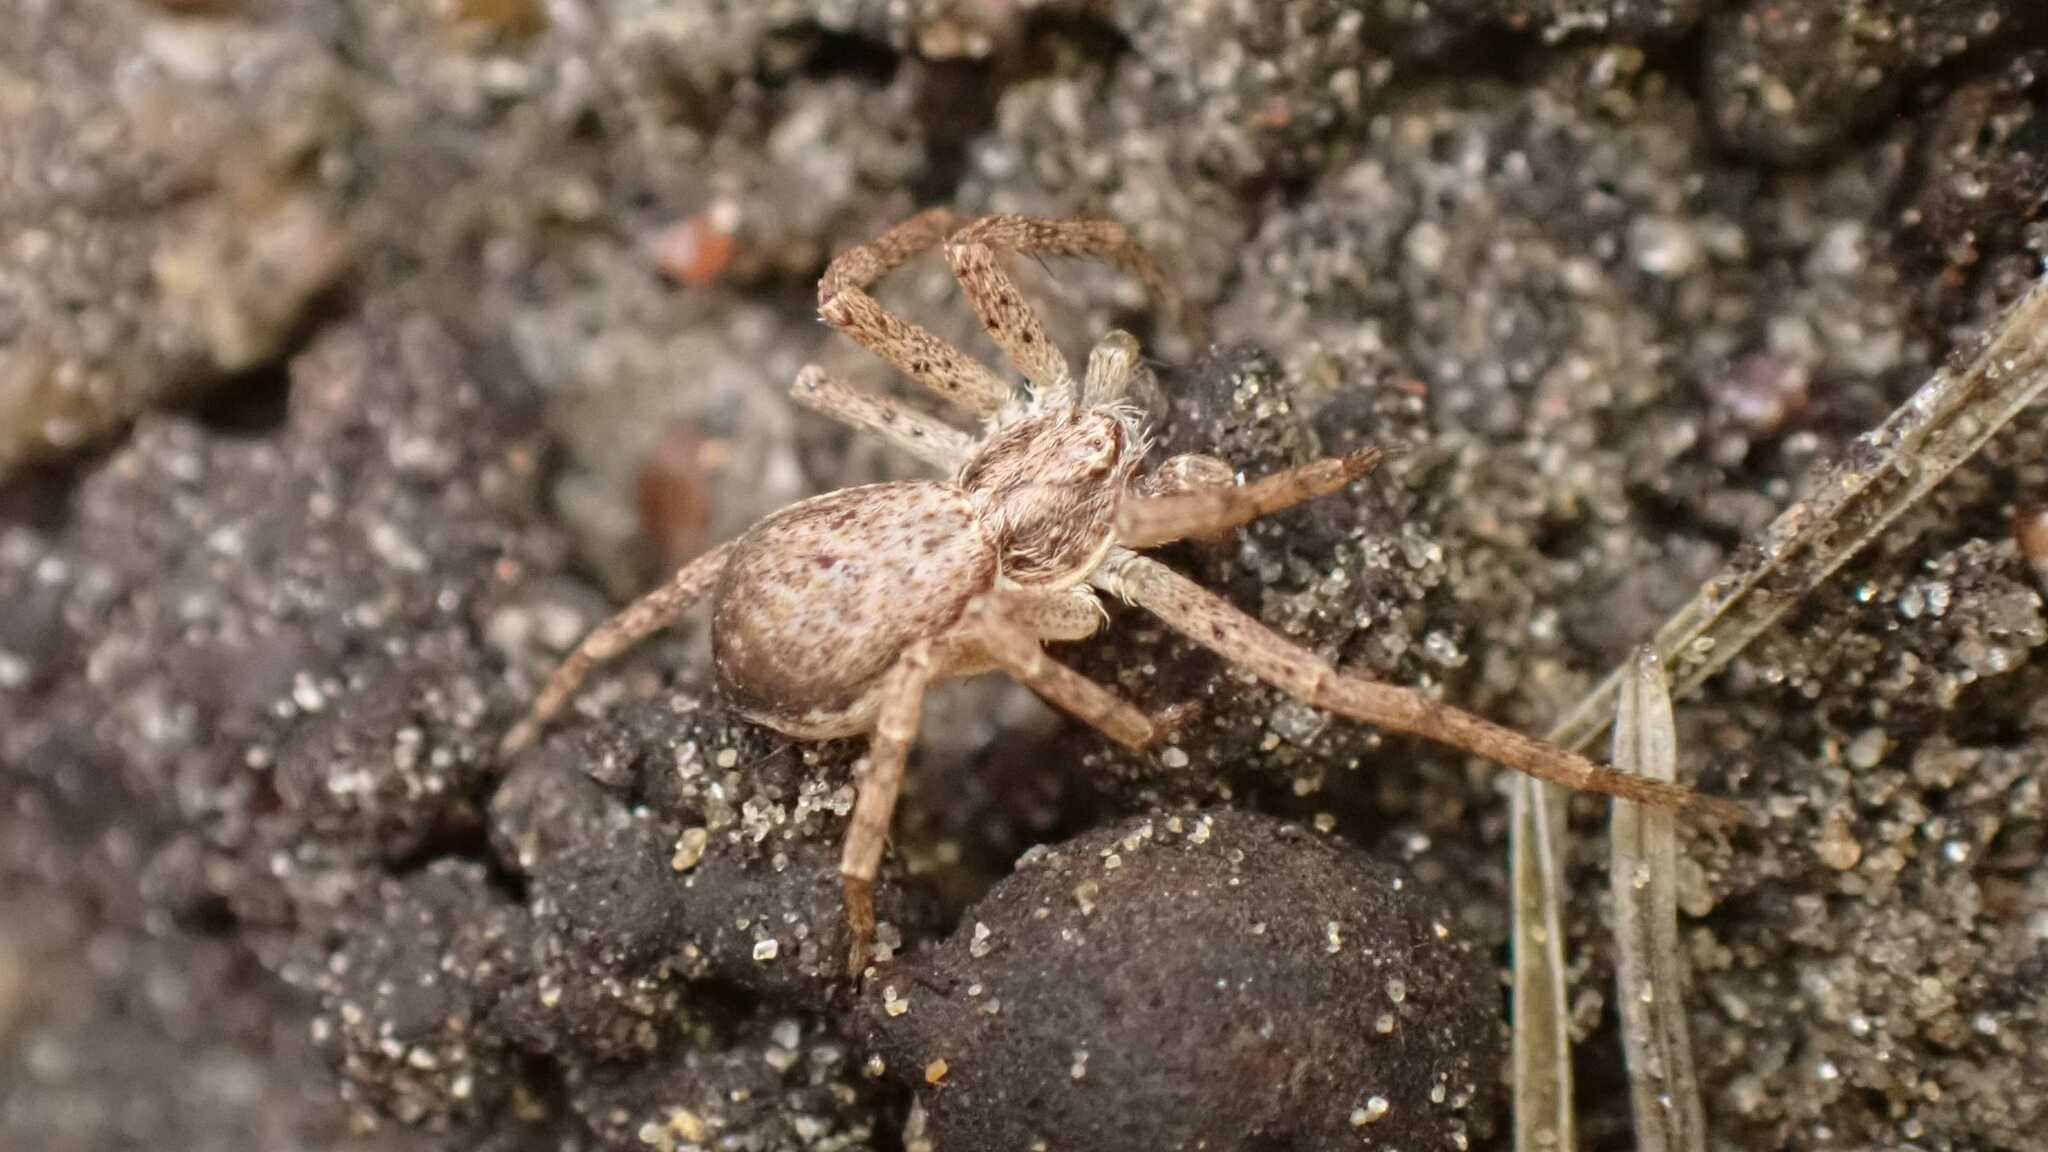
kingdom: Animalia
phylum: Arthropoda
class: Arachnida
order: Araneae
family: Philodromidae
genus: Philodromus
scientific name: Philodromus dispar
